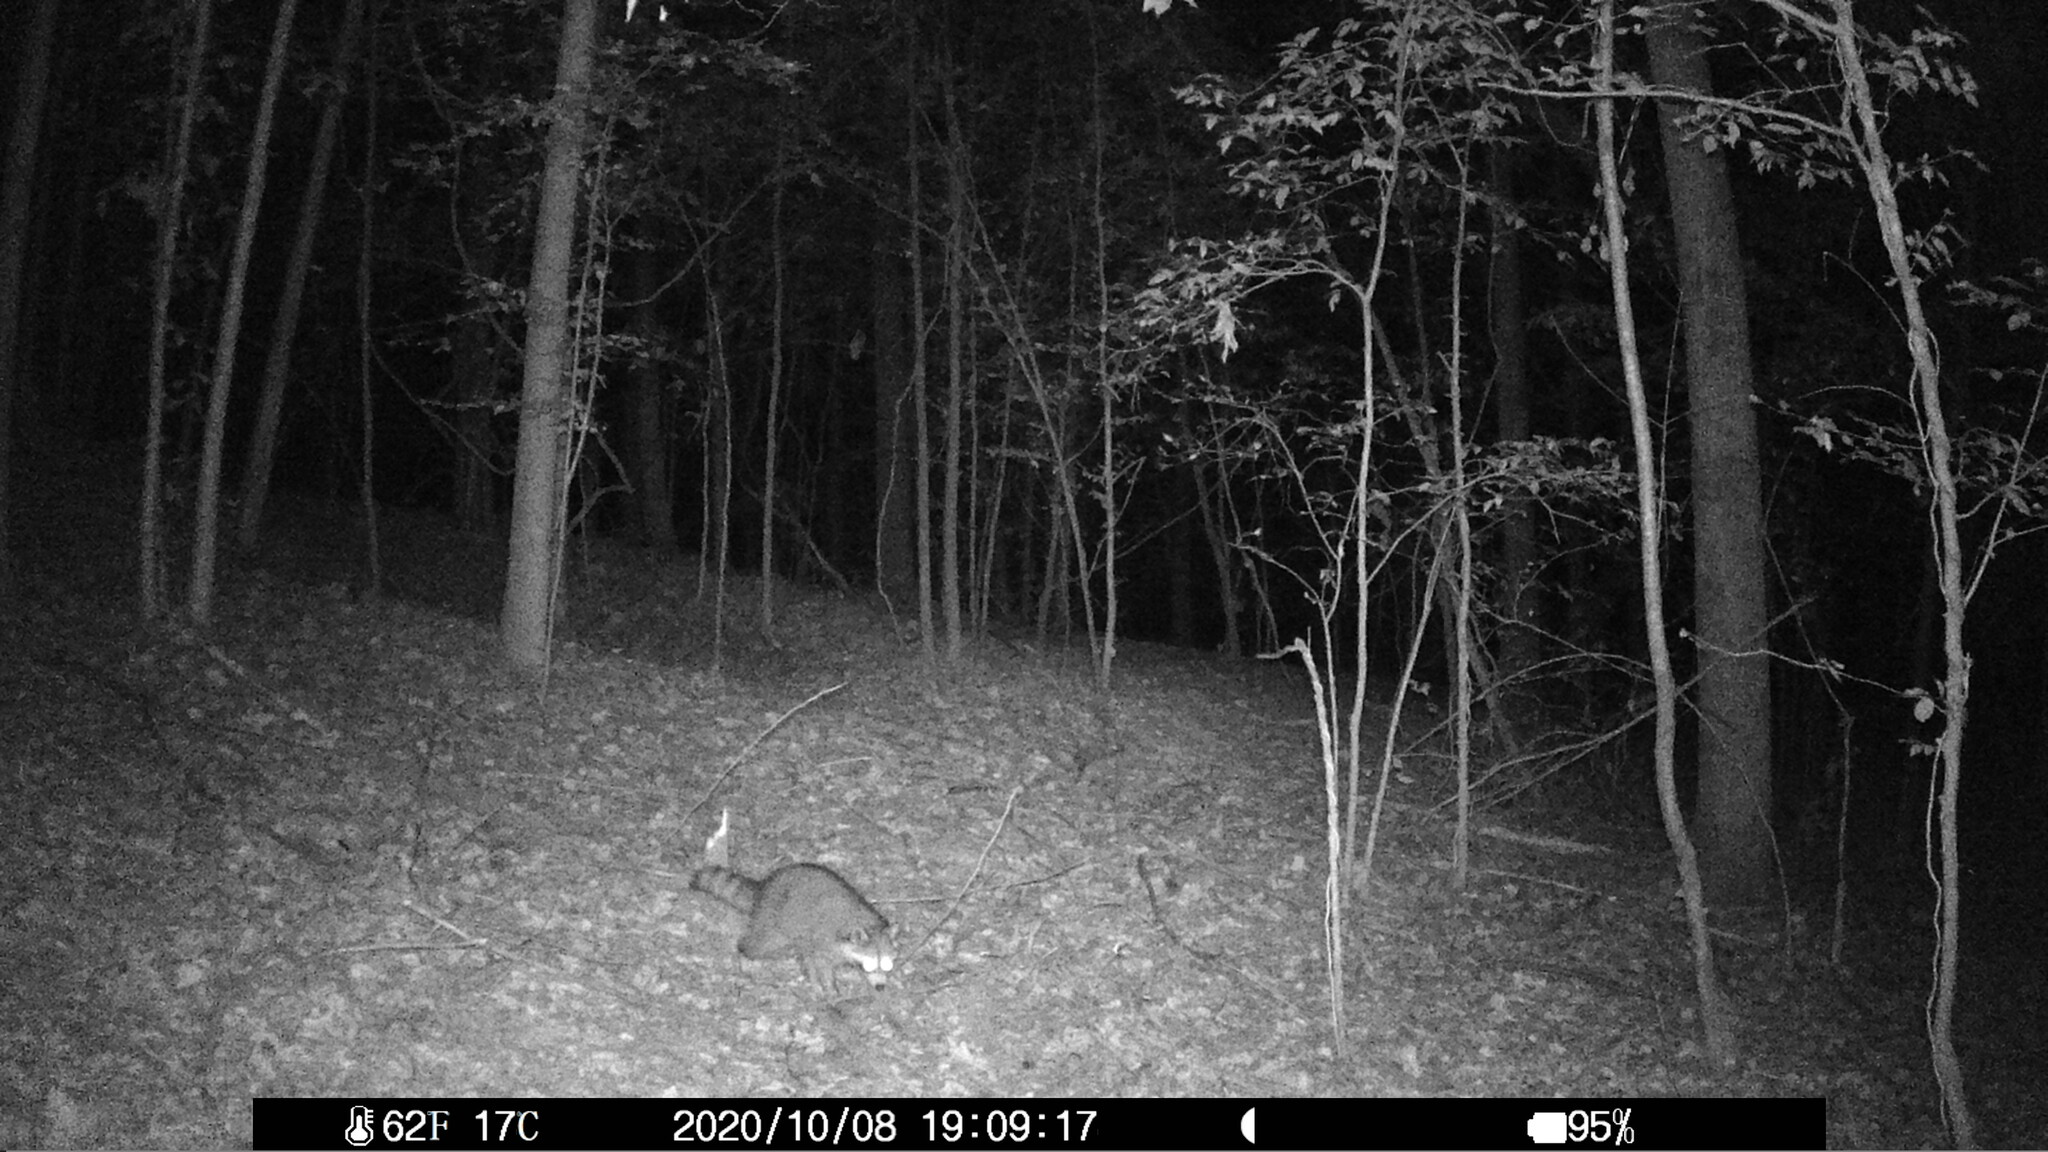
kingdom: Animalia
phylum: Chordata
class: Mammalia
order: Carnivora
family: Procyonidae
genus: Procyon
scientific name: Procyon lotor
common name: Raccoon
